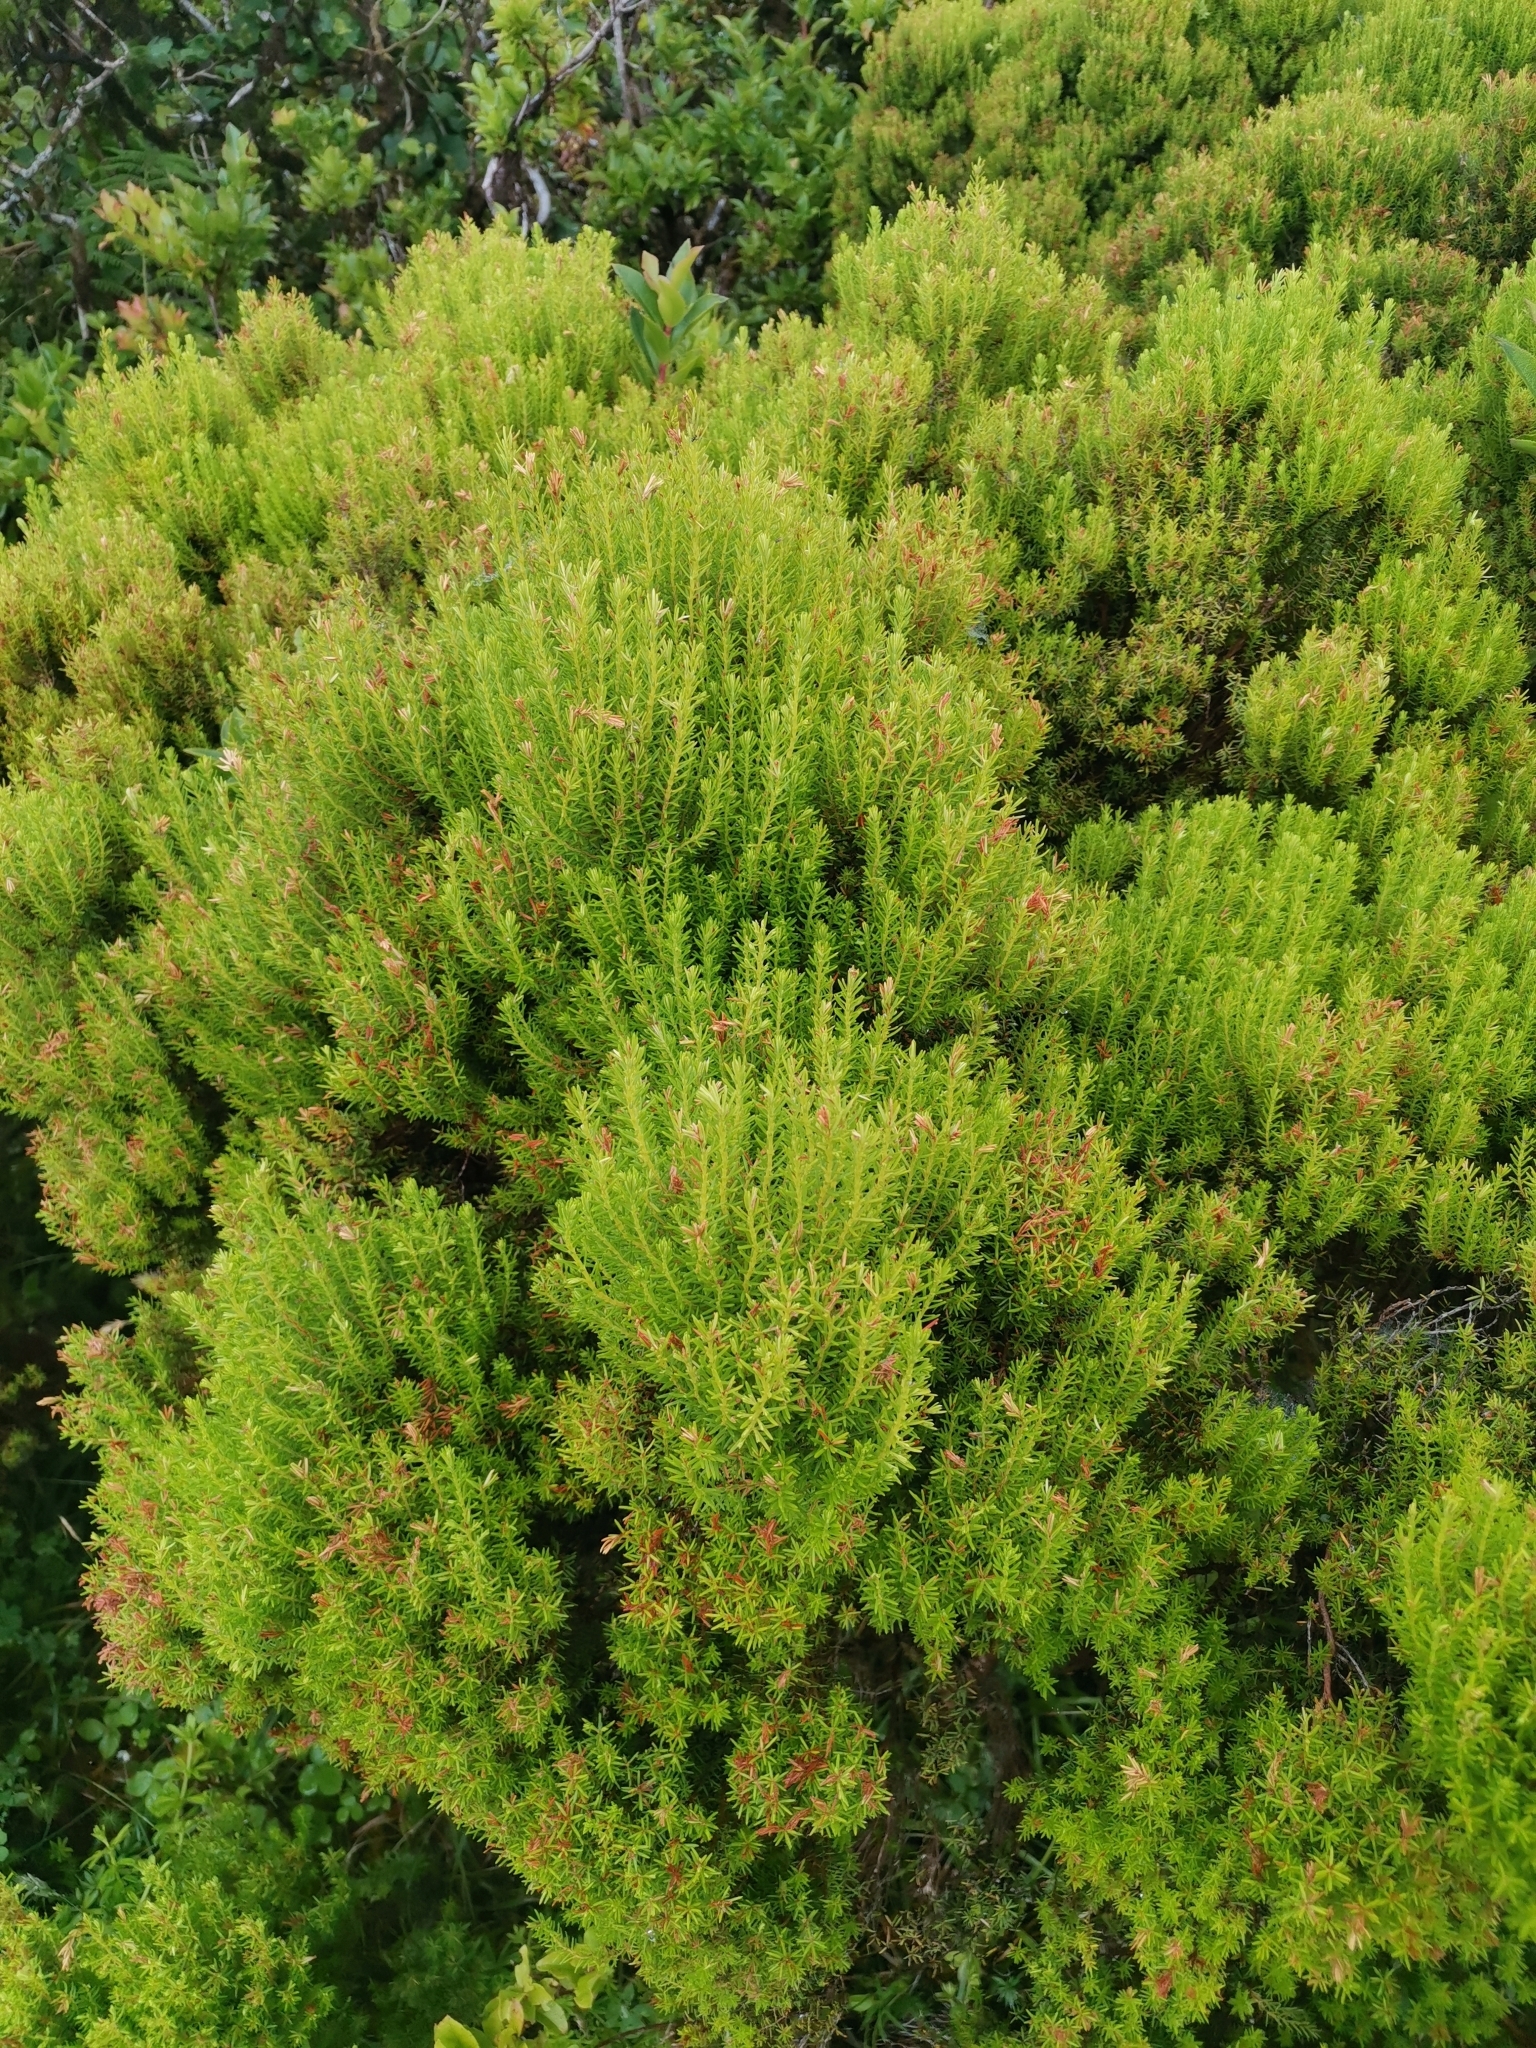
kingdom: Plantae
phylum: Tracheophyta
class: Magnoliopsida
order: Ericales
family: Ericaceae
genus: Erica
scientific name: Erica azorica
